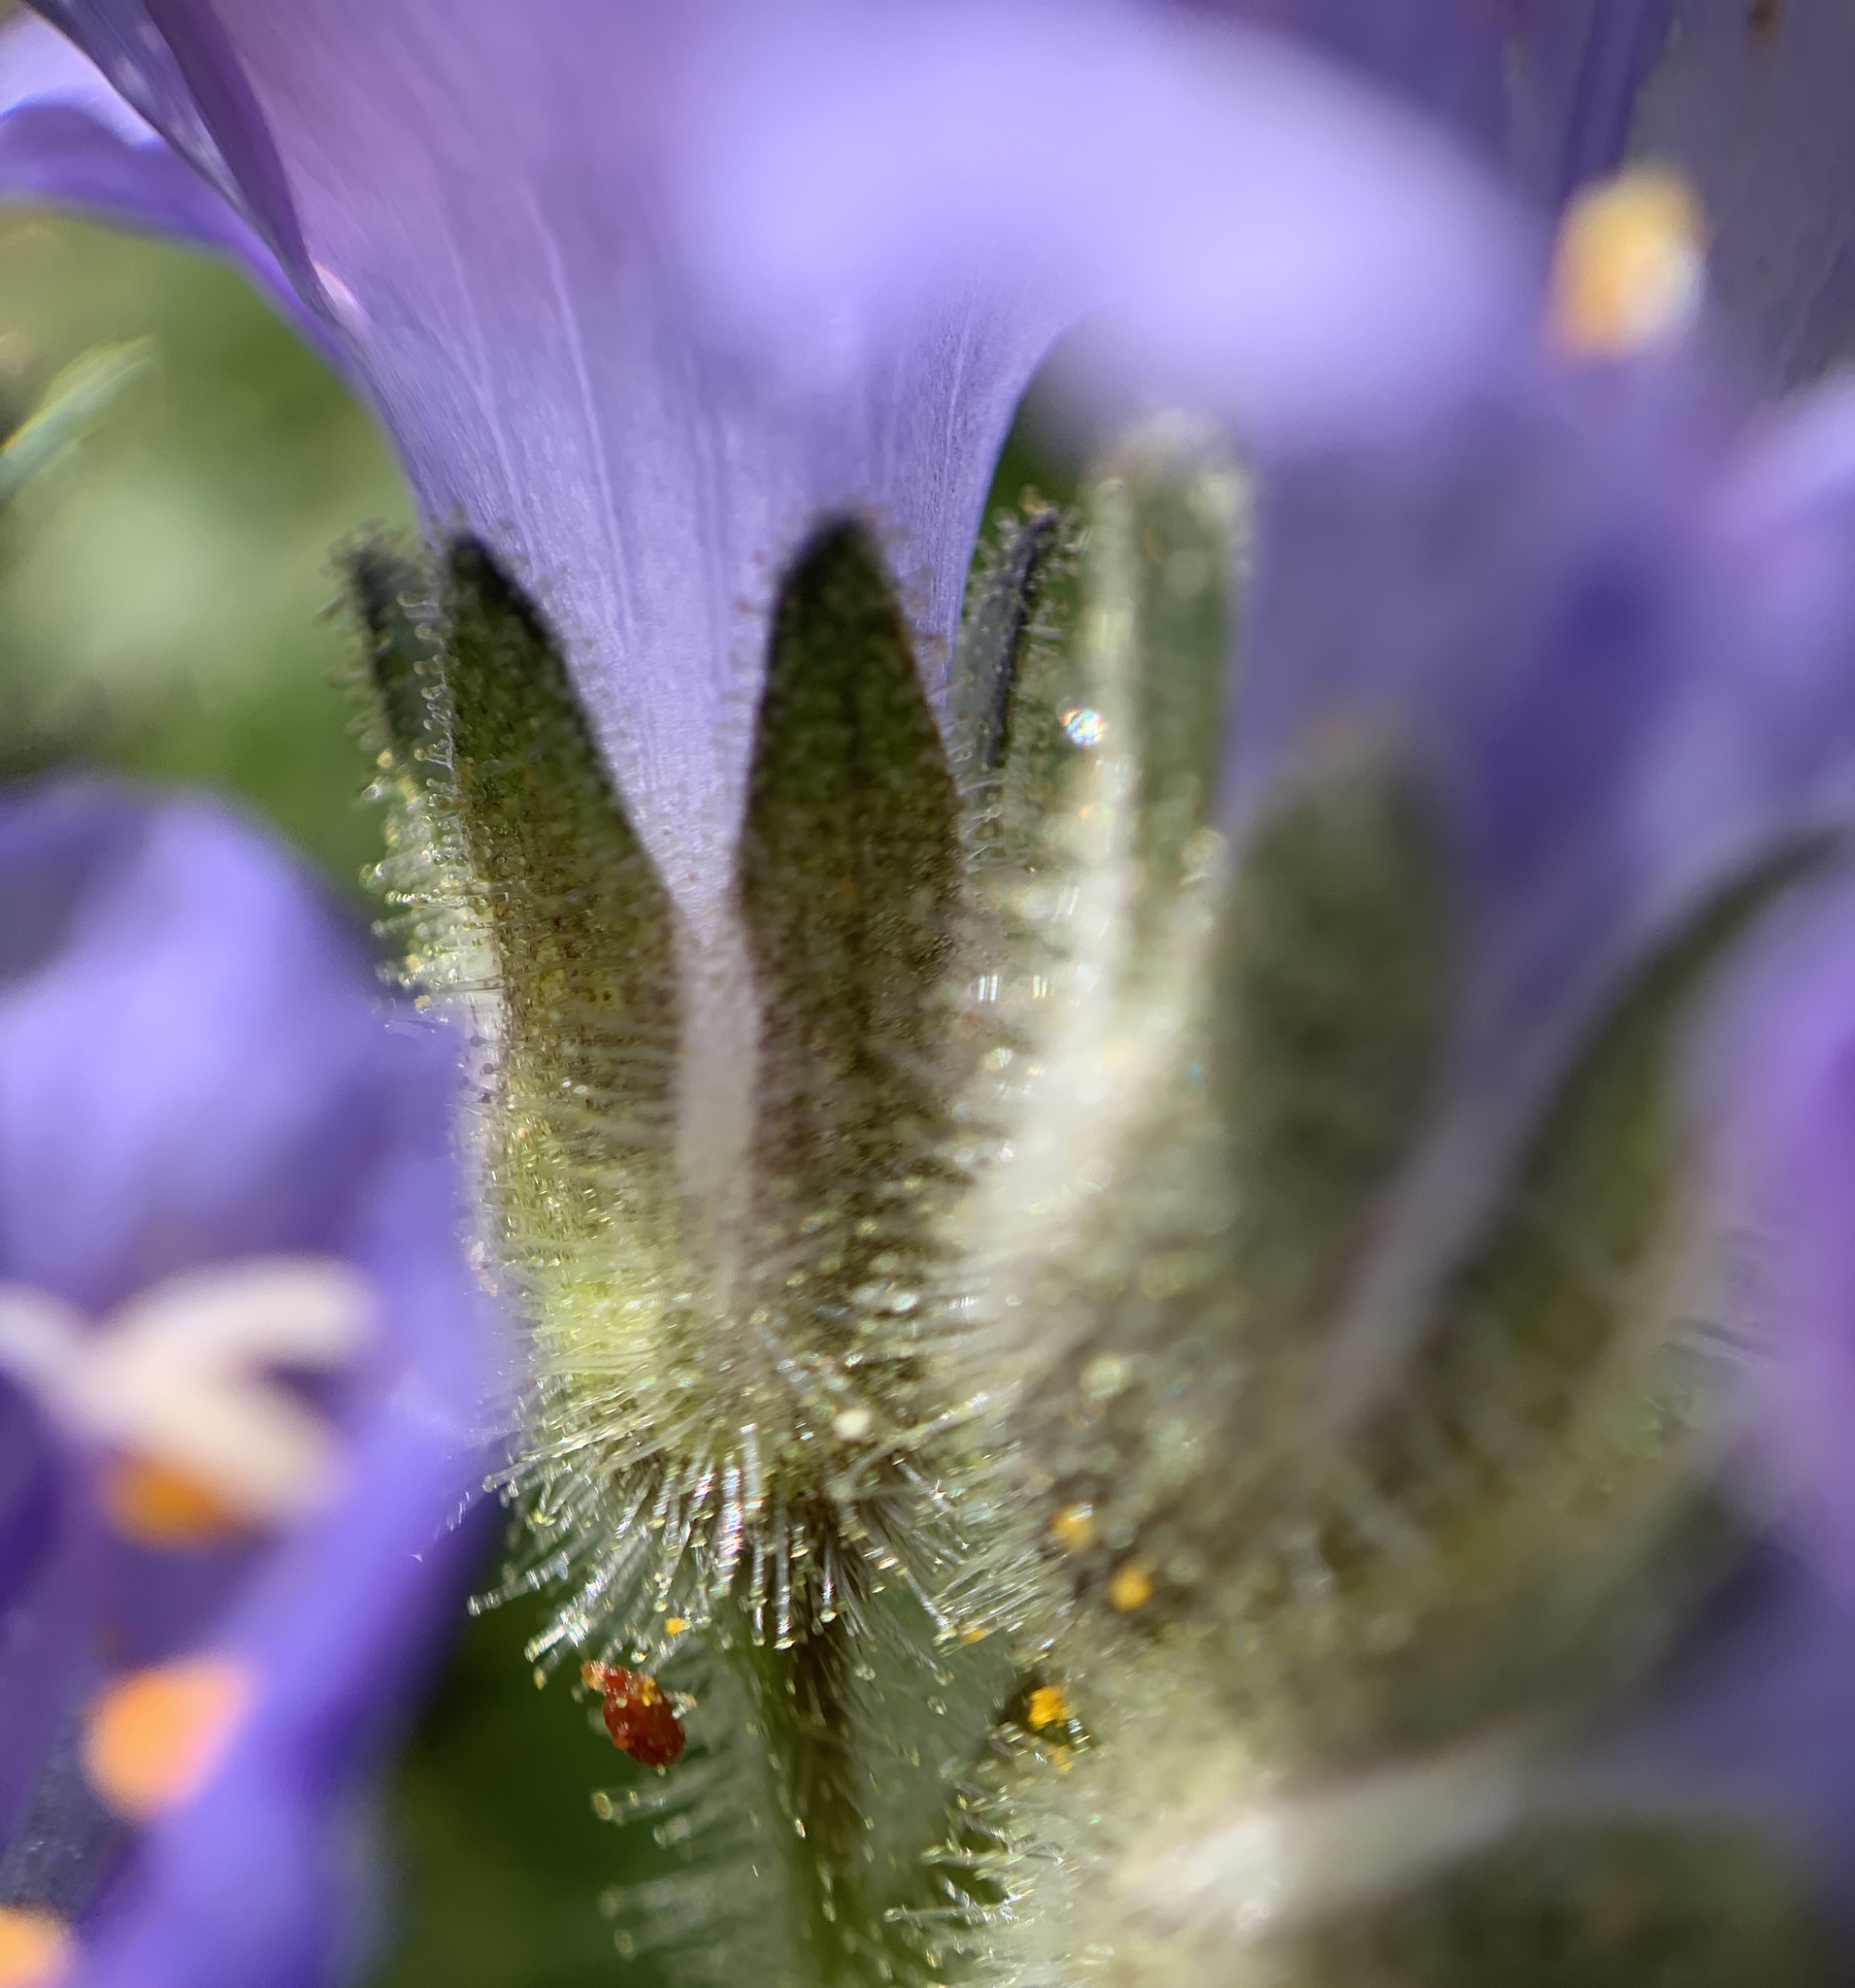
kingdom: Plantae
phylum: Tracheophyta
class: Magnoliopsida
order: Ericales
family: Polemoniaceae
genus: Polemonium
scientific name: Polemonium viscosum
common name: Skunk jacob's-ladder
